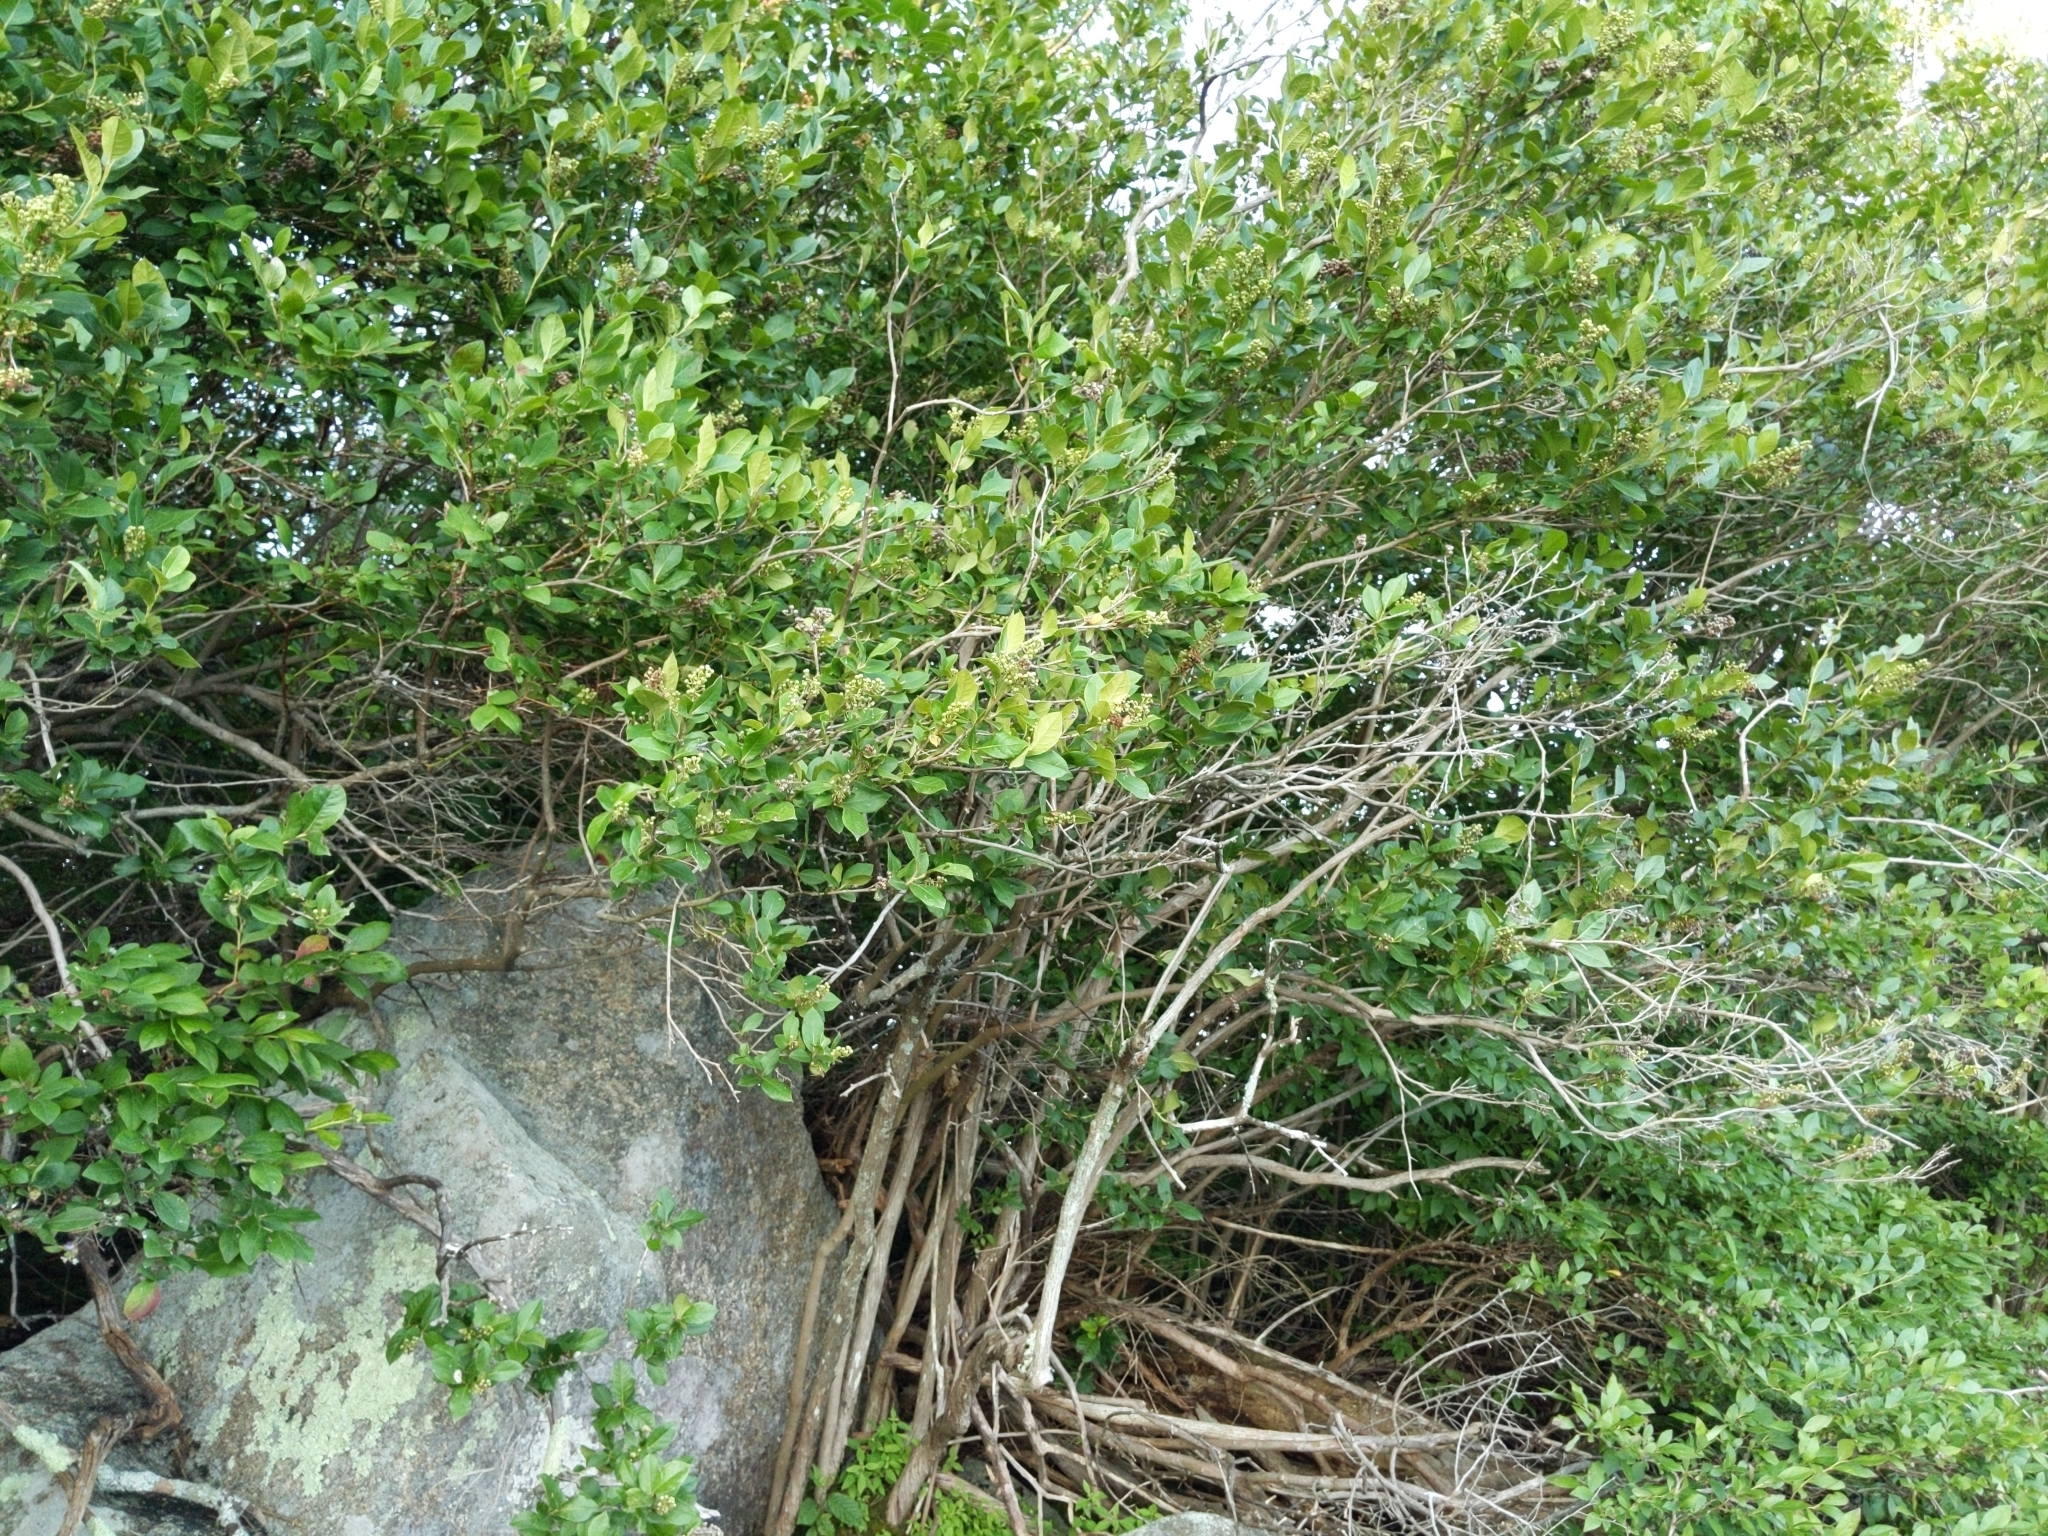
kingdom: Plantae
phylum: Tracheophyta
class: Magnoliopsida
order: Ericales
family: Ericaceae
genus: Lyonia
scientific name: Lyonia ligustrina
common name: Maleberry
